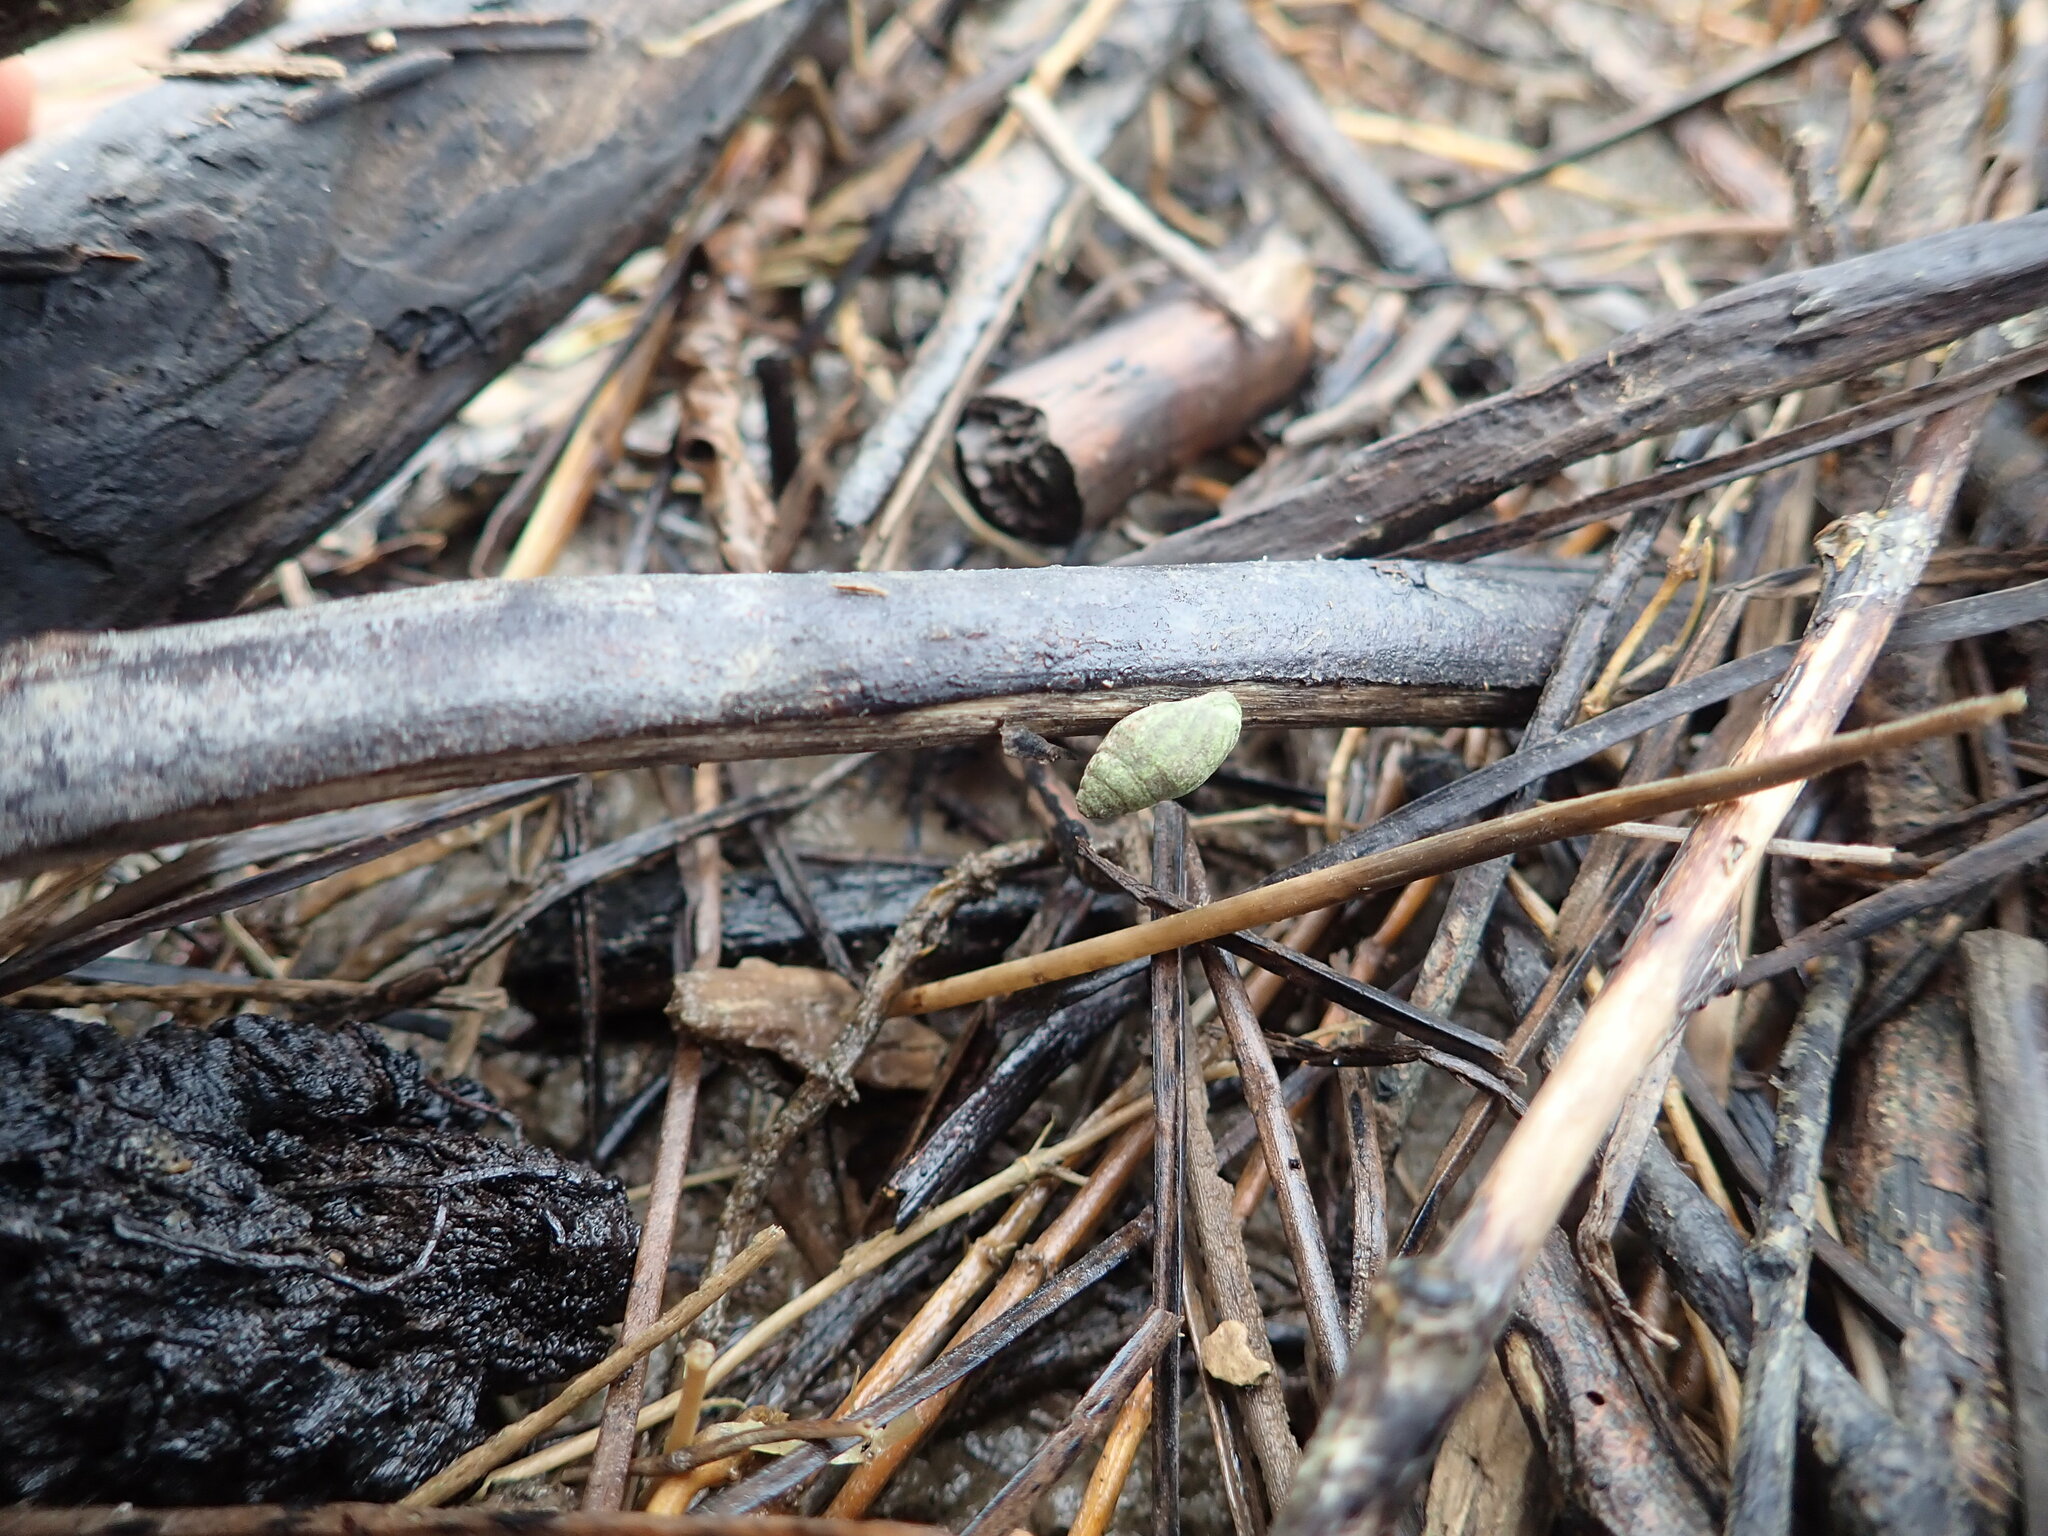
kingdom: Animalia
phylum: Mollusca
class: Gastropoda
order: Ellobiida
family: Ellobiidae
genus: Pleuroloba
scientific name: Pleuroloba costellaris
